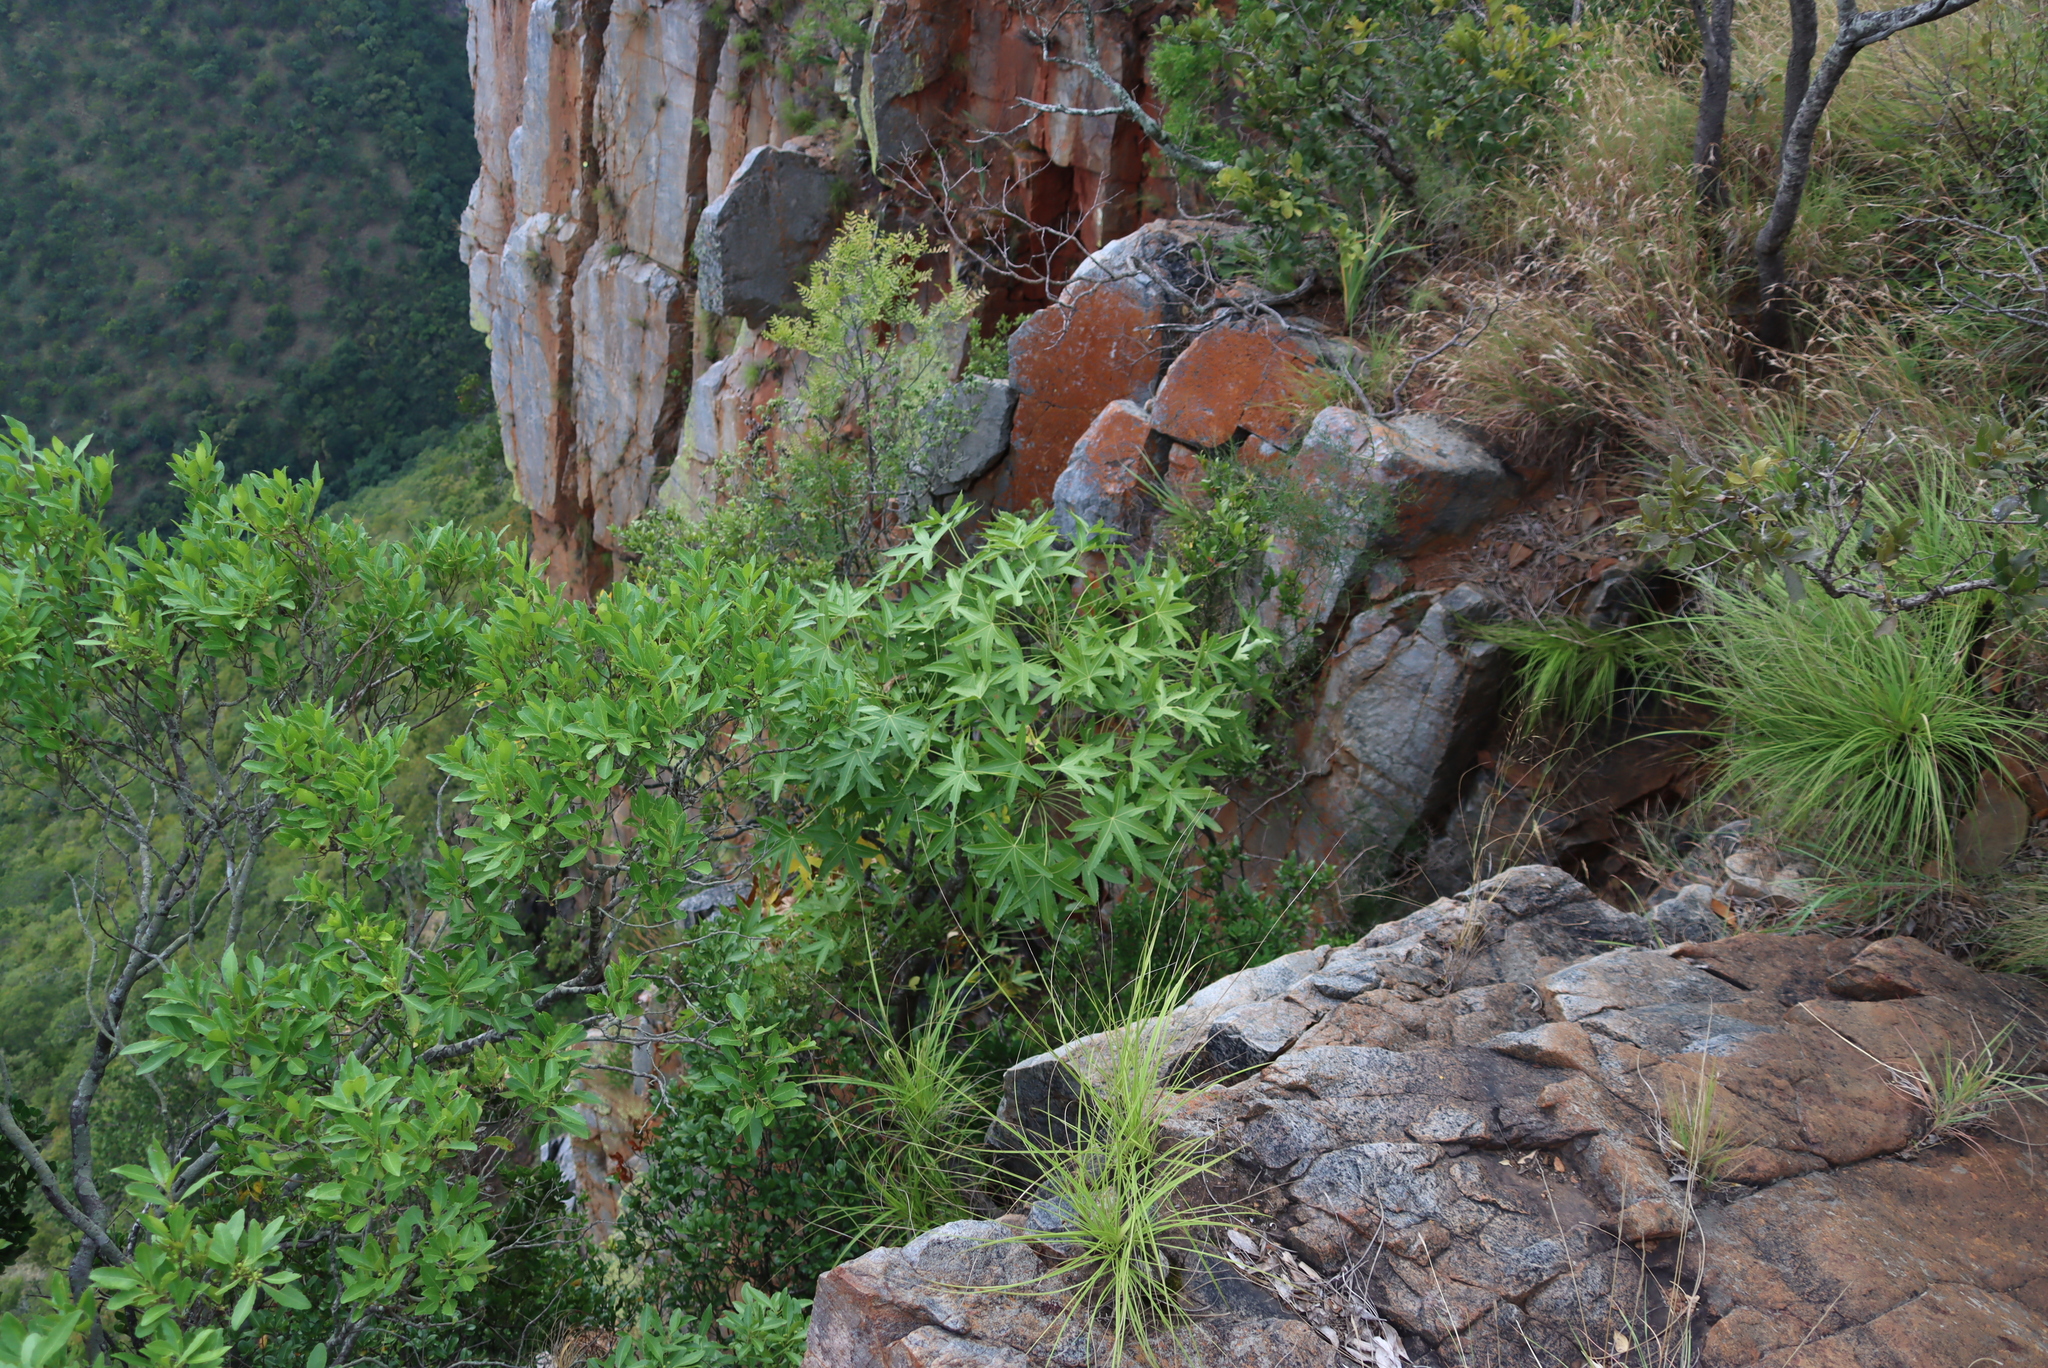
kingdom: Plantae
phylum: Tracheophyta
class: Magnoliopsida
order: Apiales
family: Araliaceae
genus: Cussonia
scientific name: Cussonia natalensis
